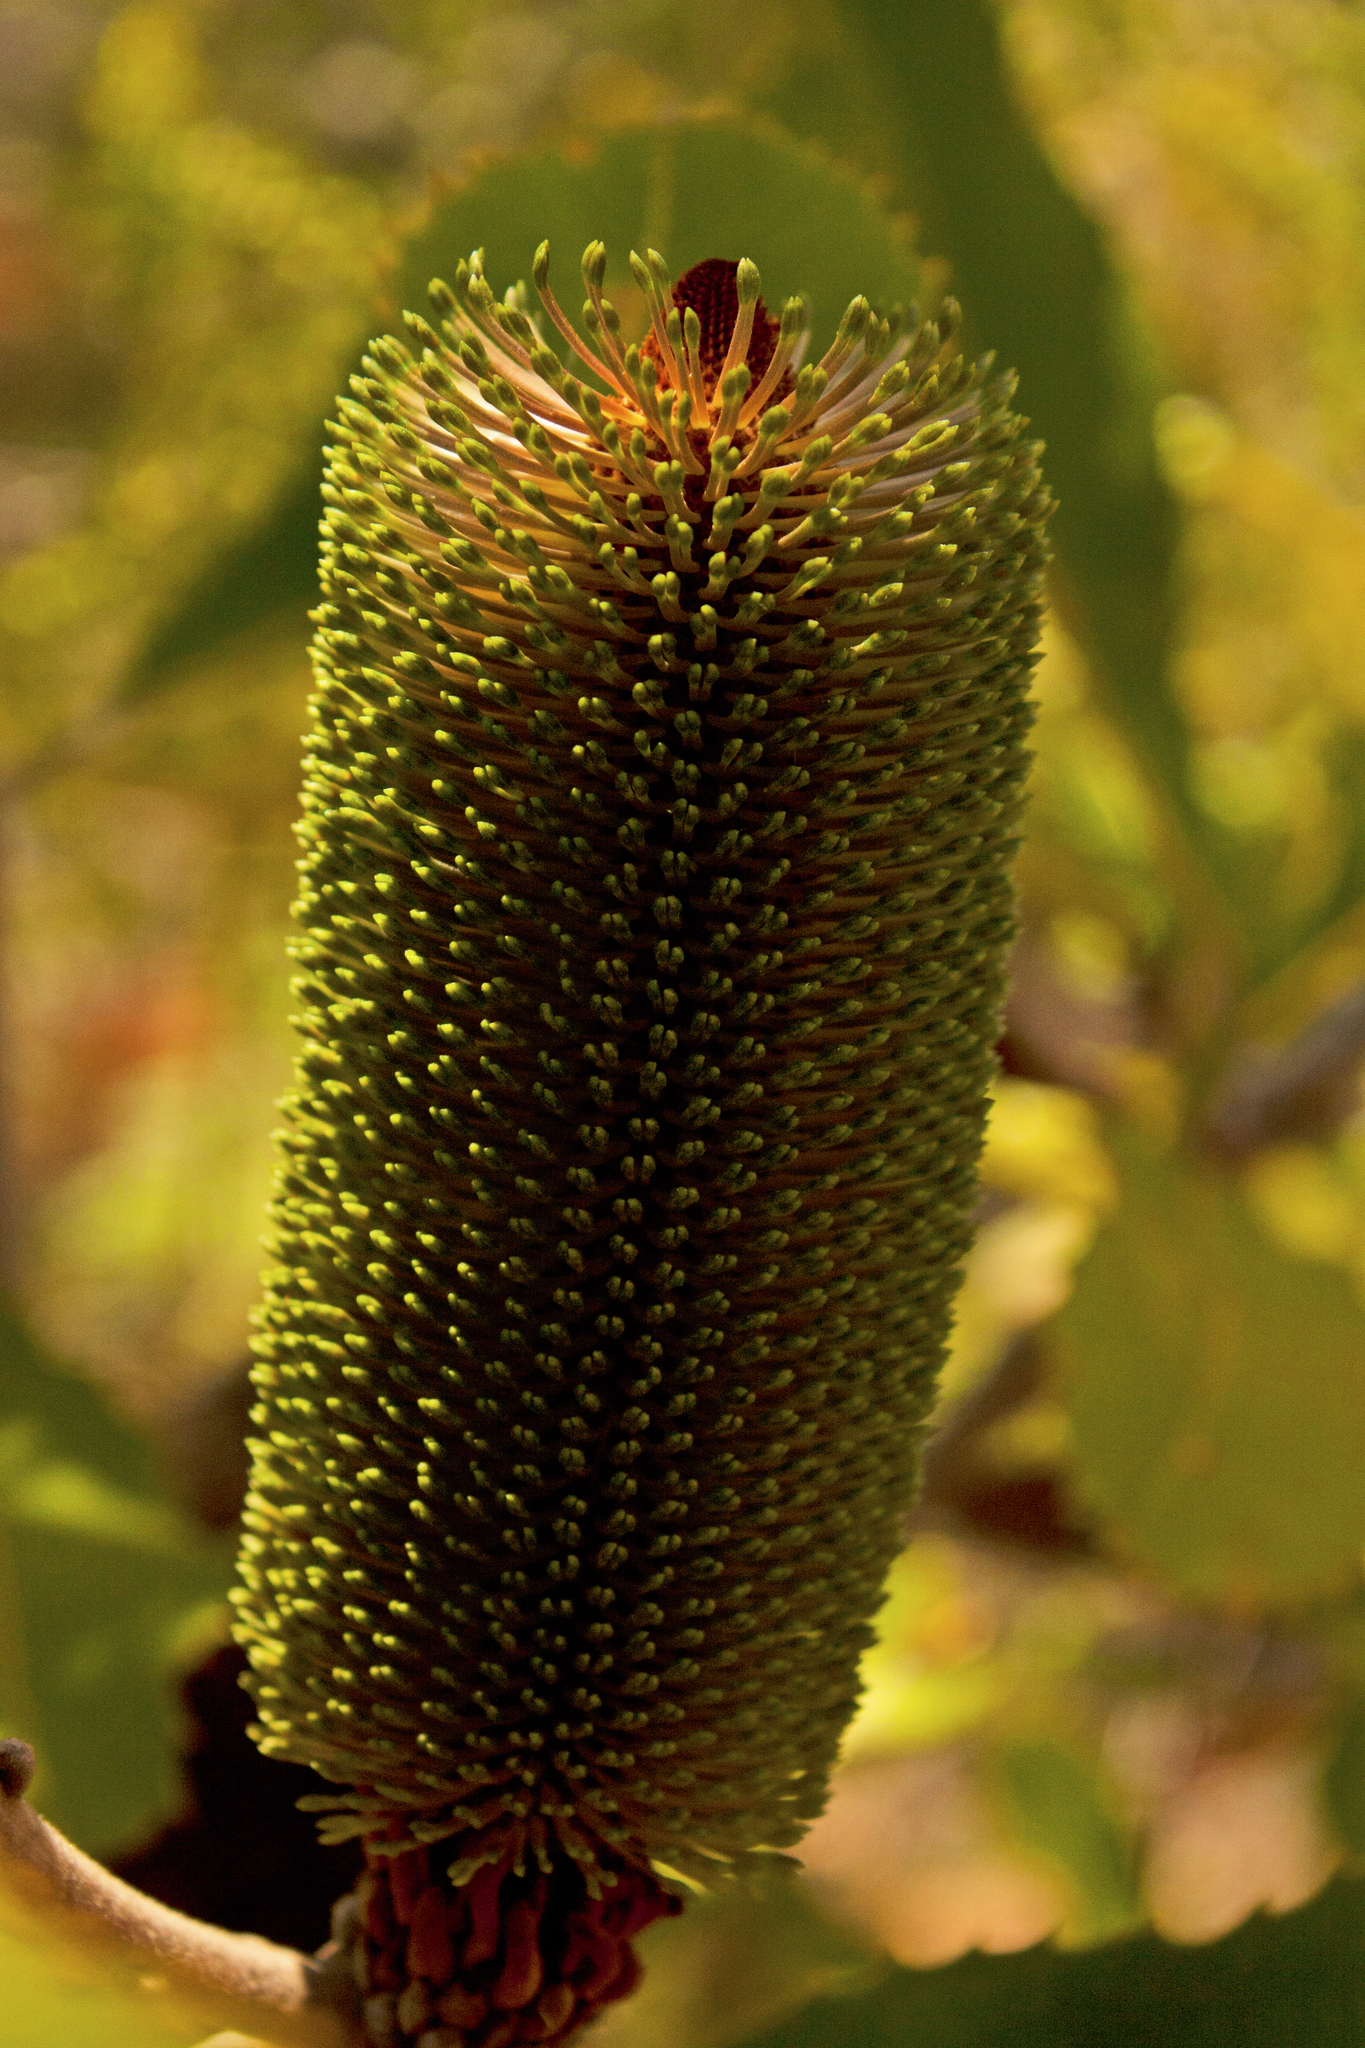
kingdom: Plantae
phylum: Tracheophyta
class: Magnoliopsida
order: Proteales
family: Proteaceae
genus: Banksia
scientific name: Banksia robur
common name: Broadleaf banksia
